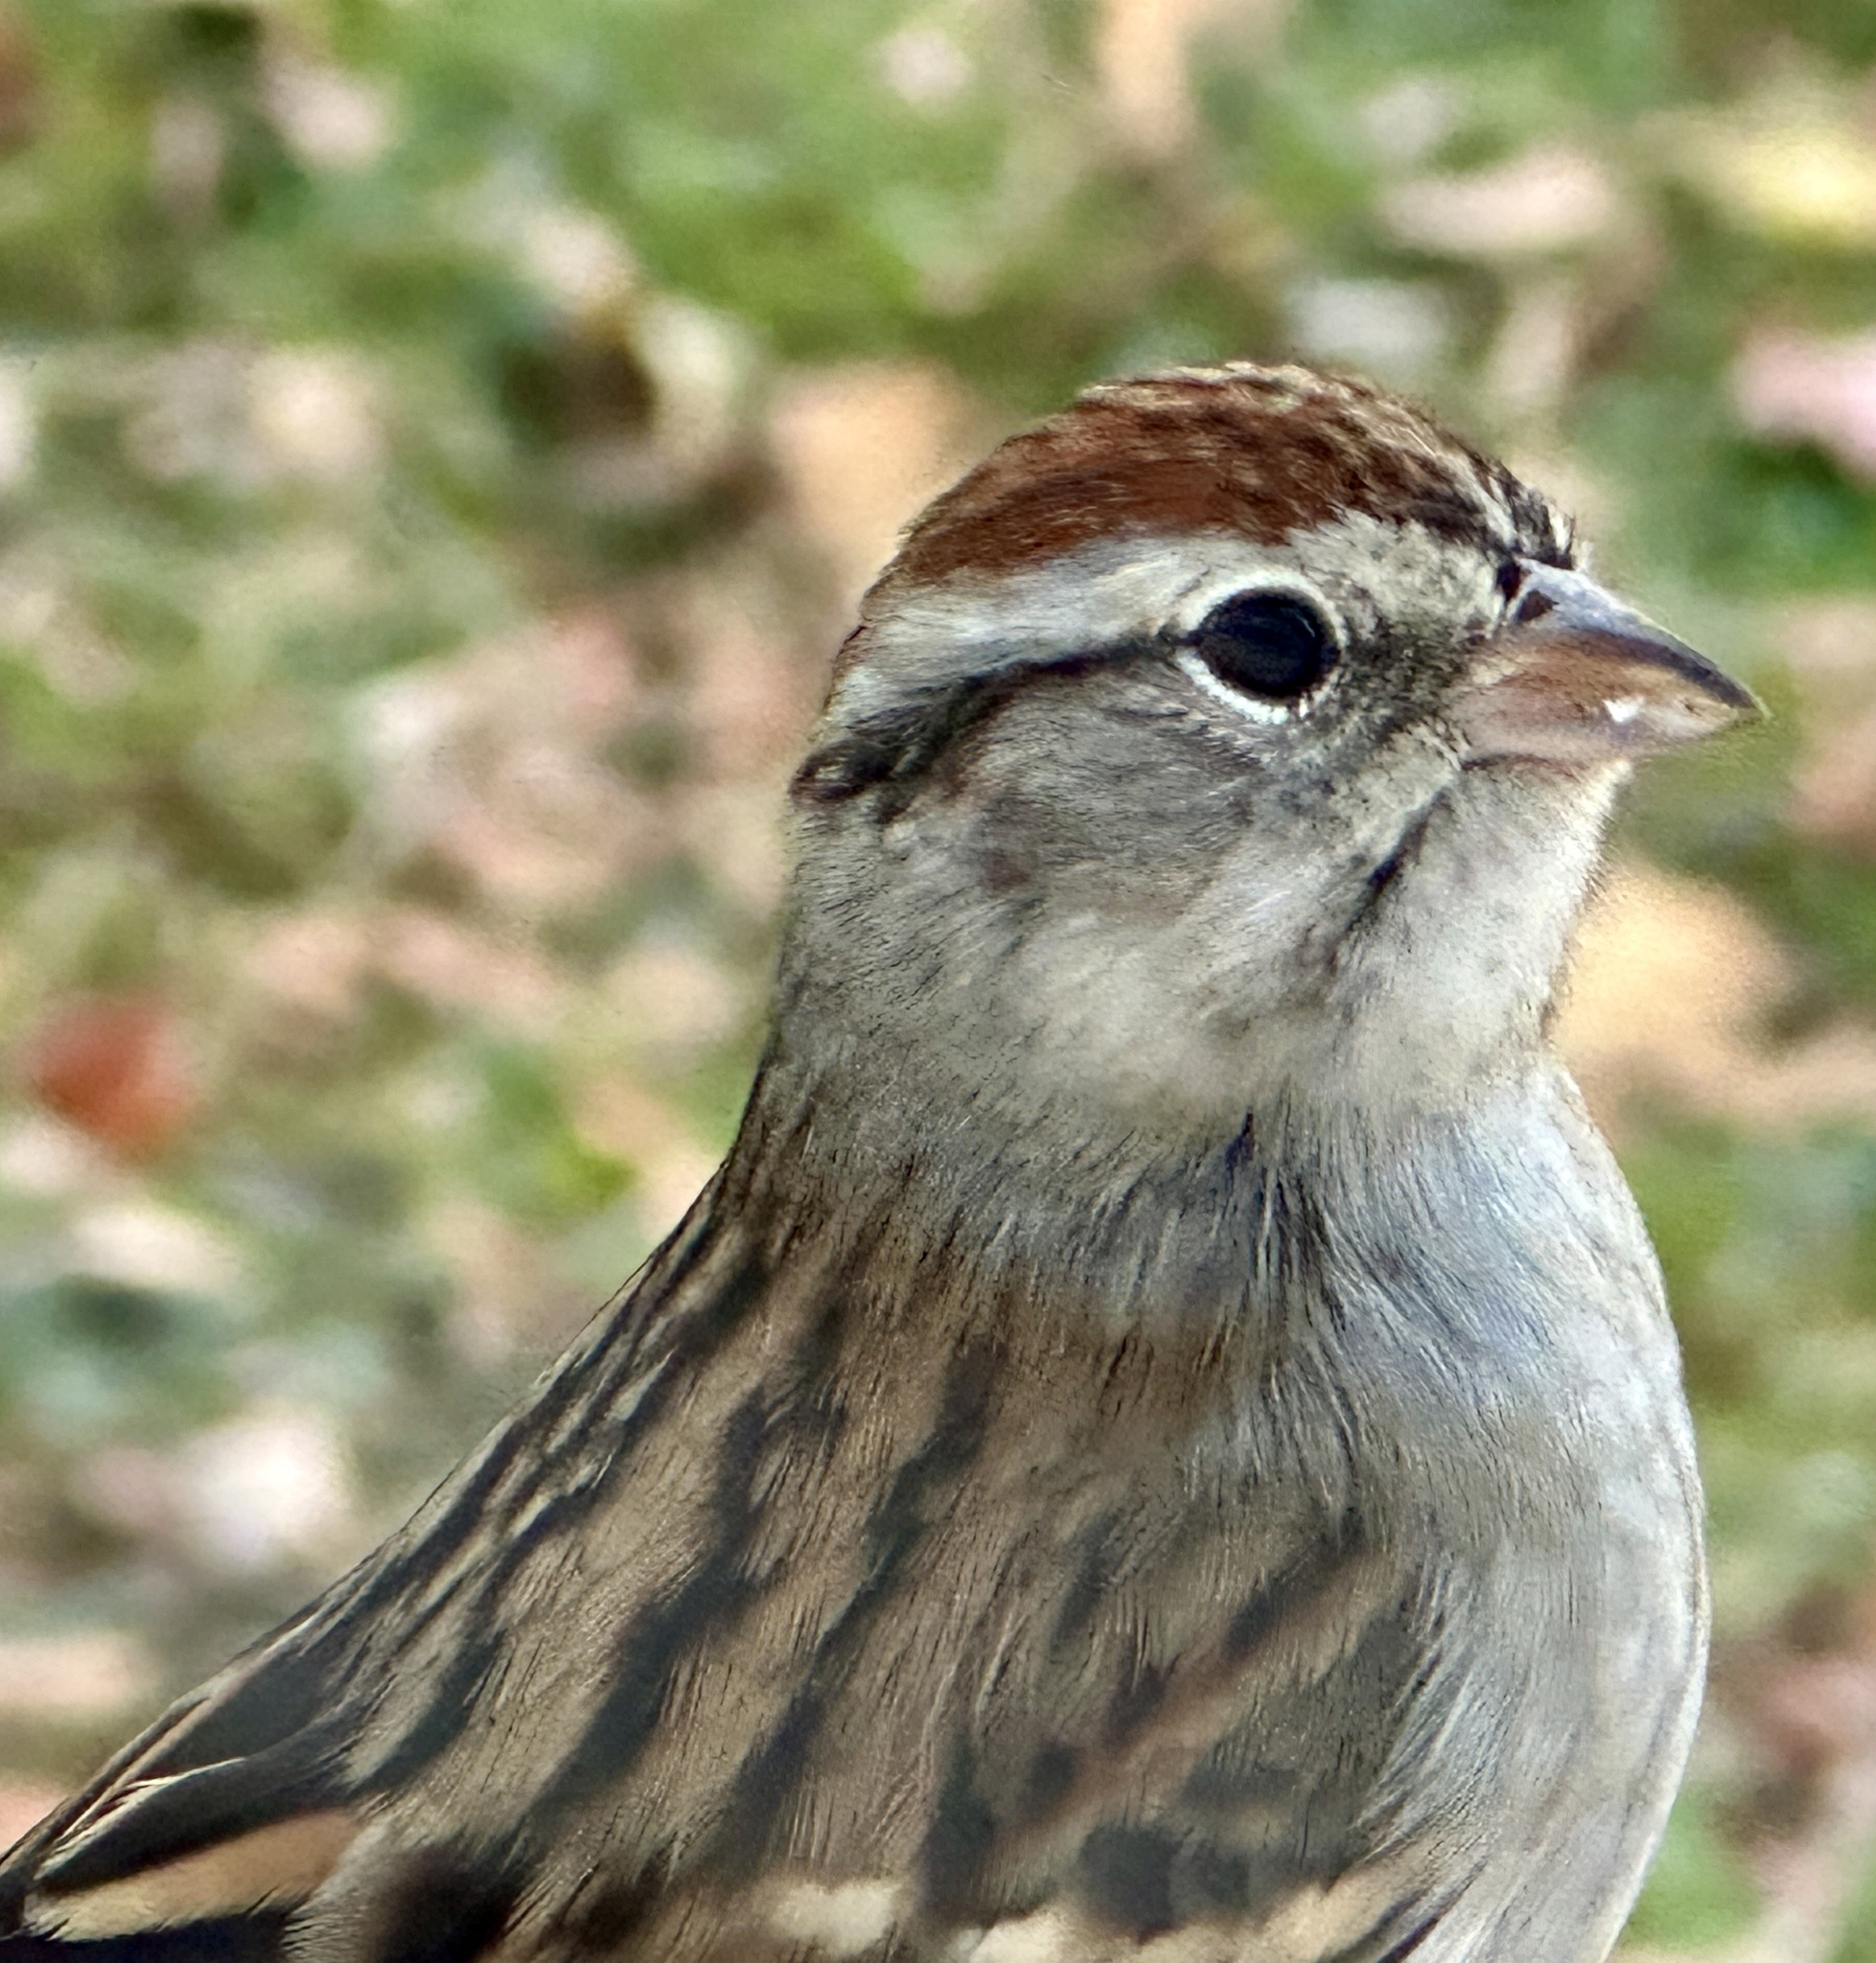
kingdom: Animalia
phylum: Chordata
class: Aves
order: Passeriformes
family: Passerellidae
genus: Spizella
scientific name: Spizella passerina
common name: Chipping sparrow
